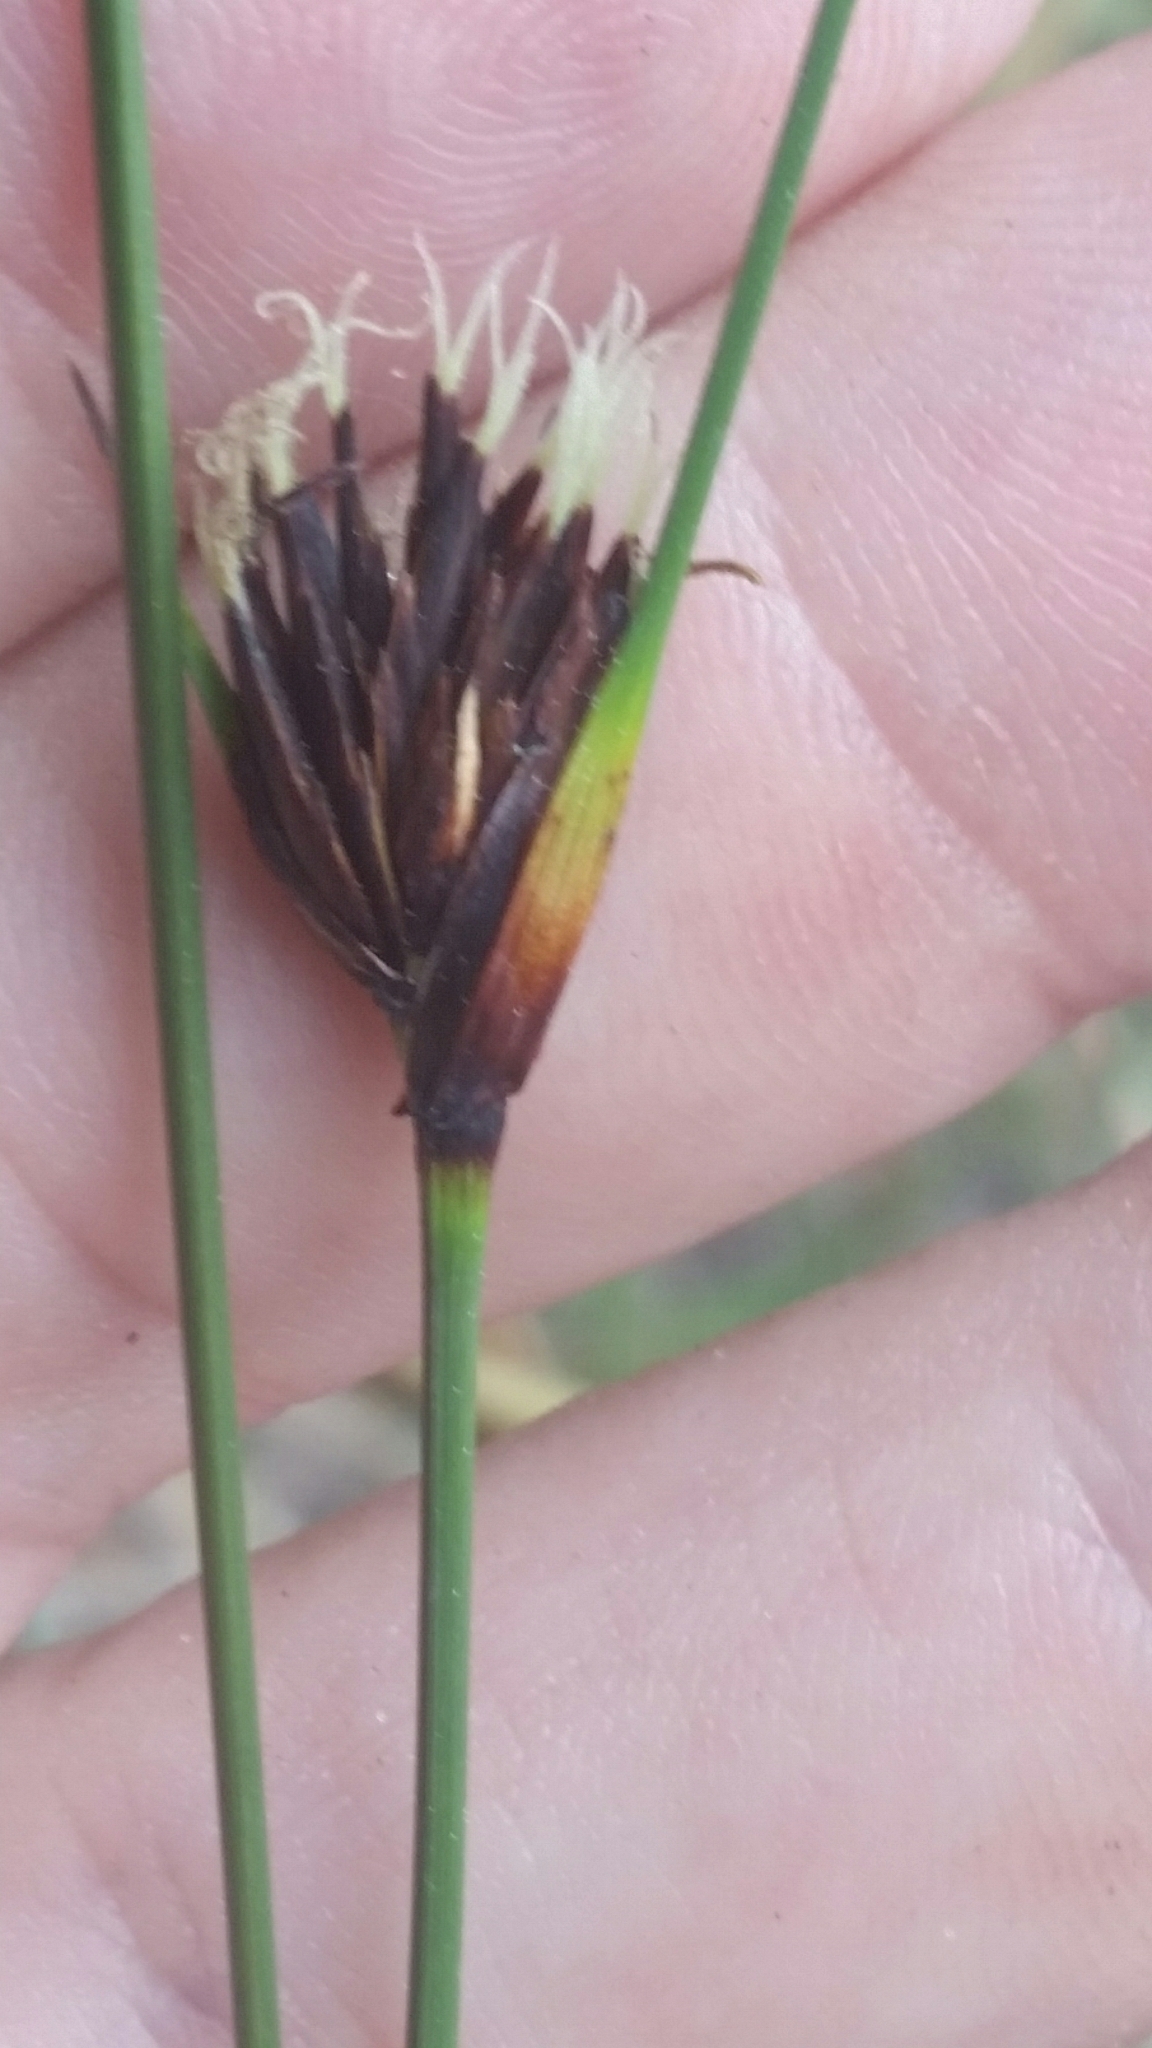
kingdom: Plantae
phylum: Tracheophyta
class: Liliopsida
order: Poales
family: Cyperaceae
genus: Schoenus
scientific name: Schoenus nigricans
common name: Black bog-rush
